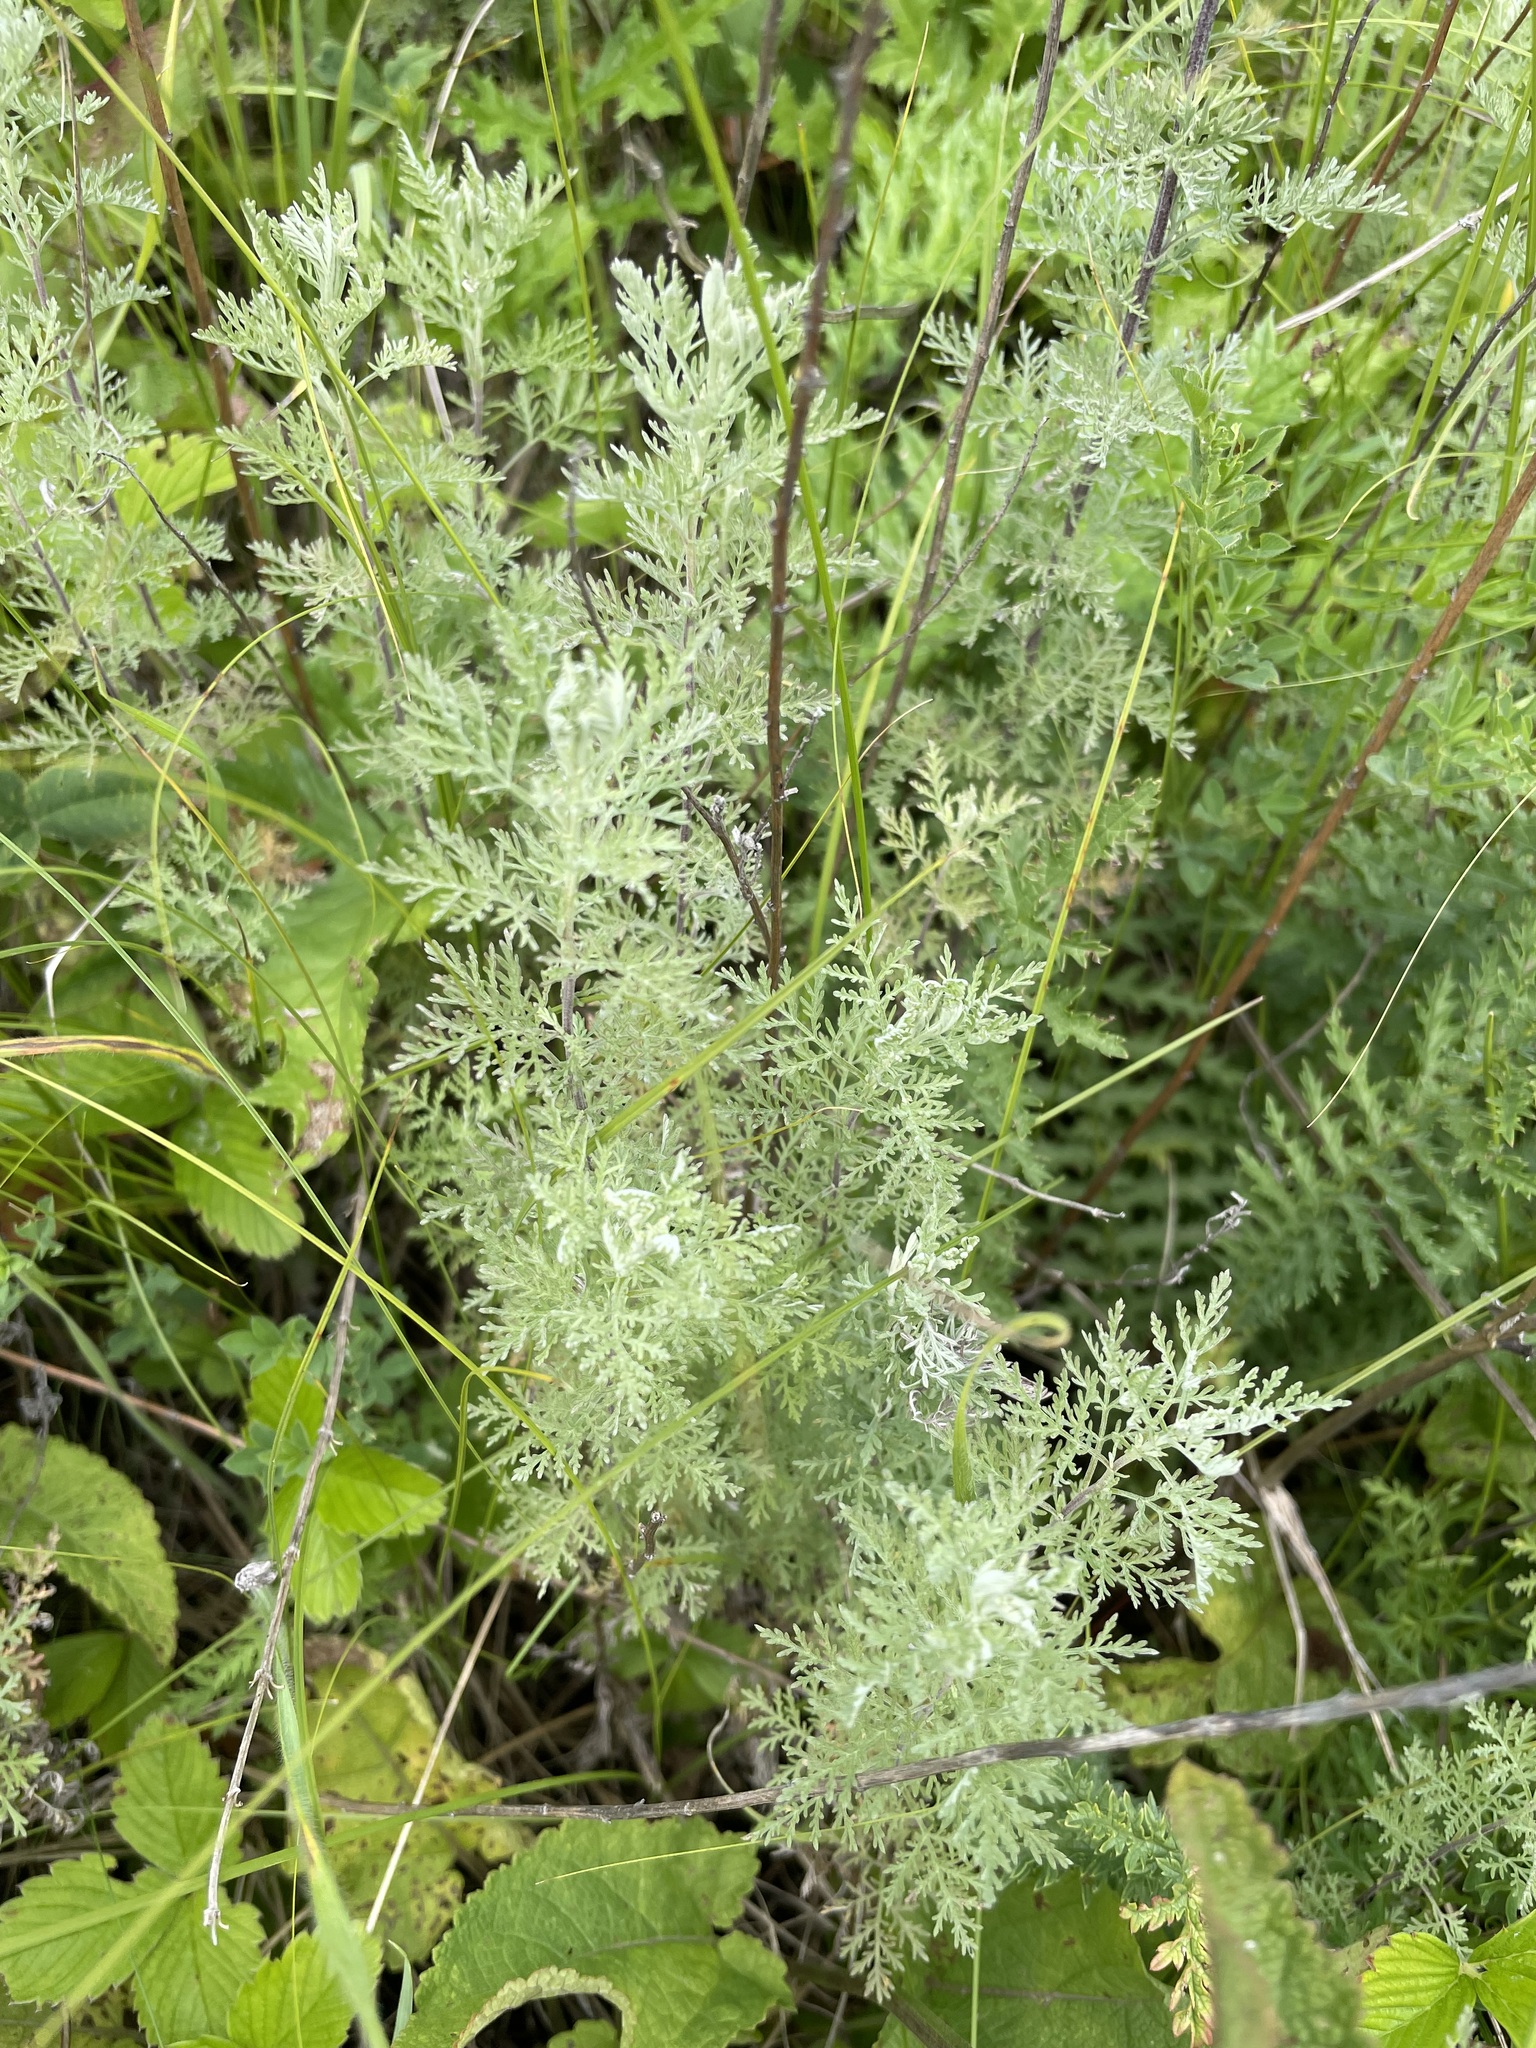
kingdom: Plantae
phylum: Tracheophyta
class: Magnoliopsida
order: Asterales
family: Asteraceae
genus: Artemisia
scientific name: Artemisia pontica
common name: Roman wormwood
